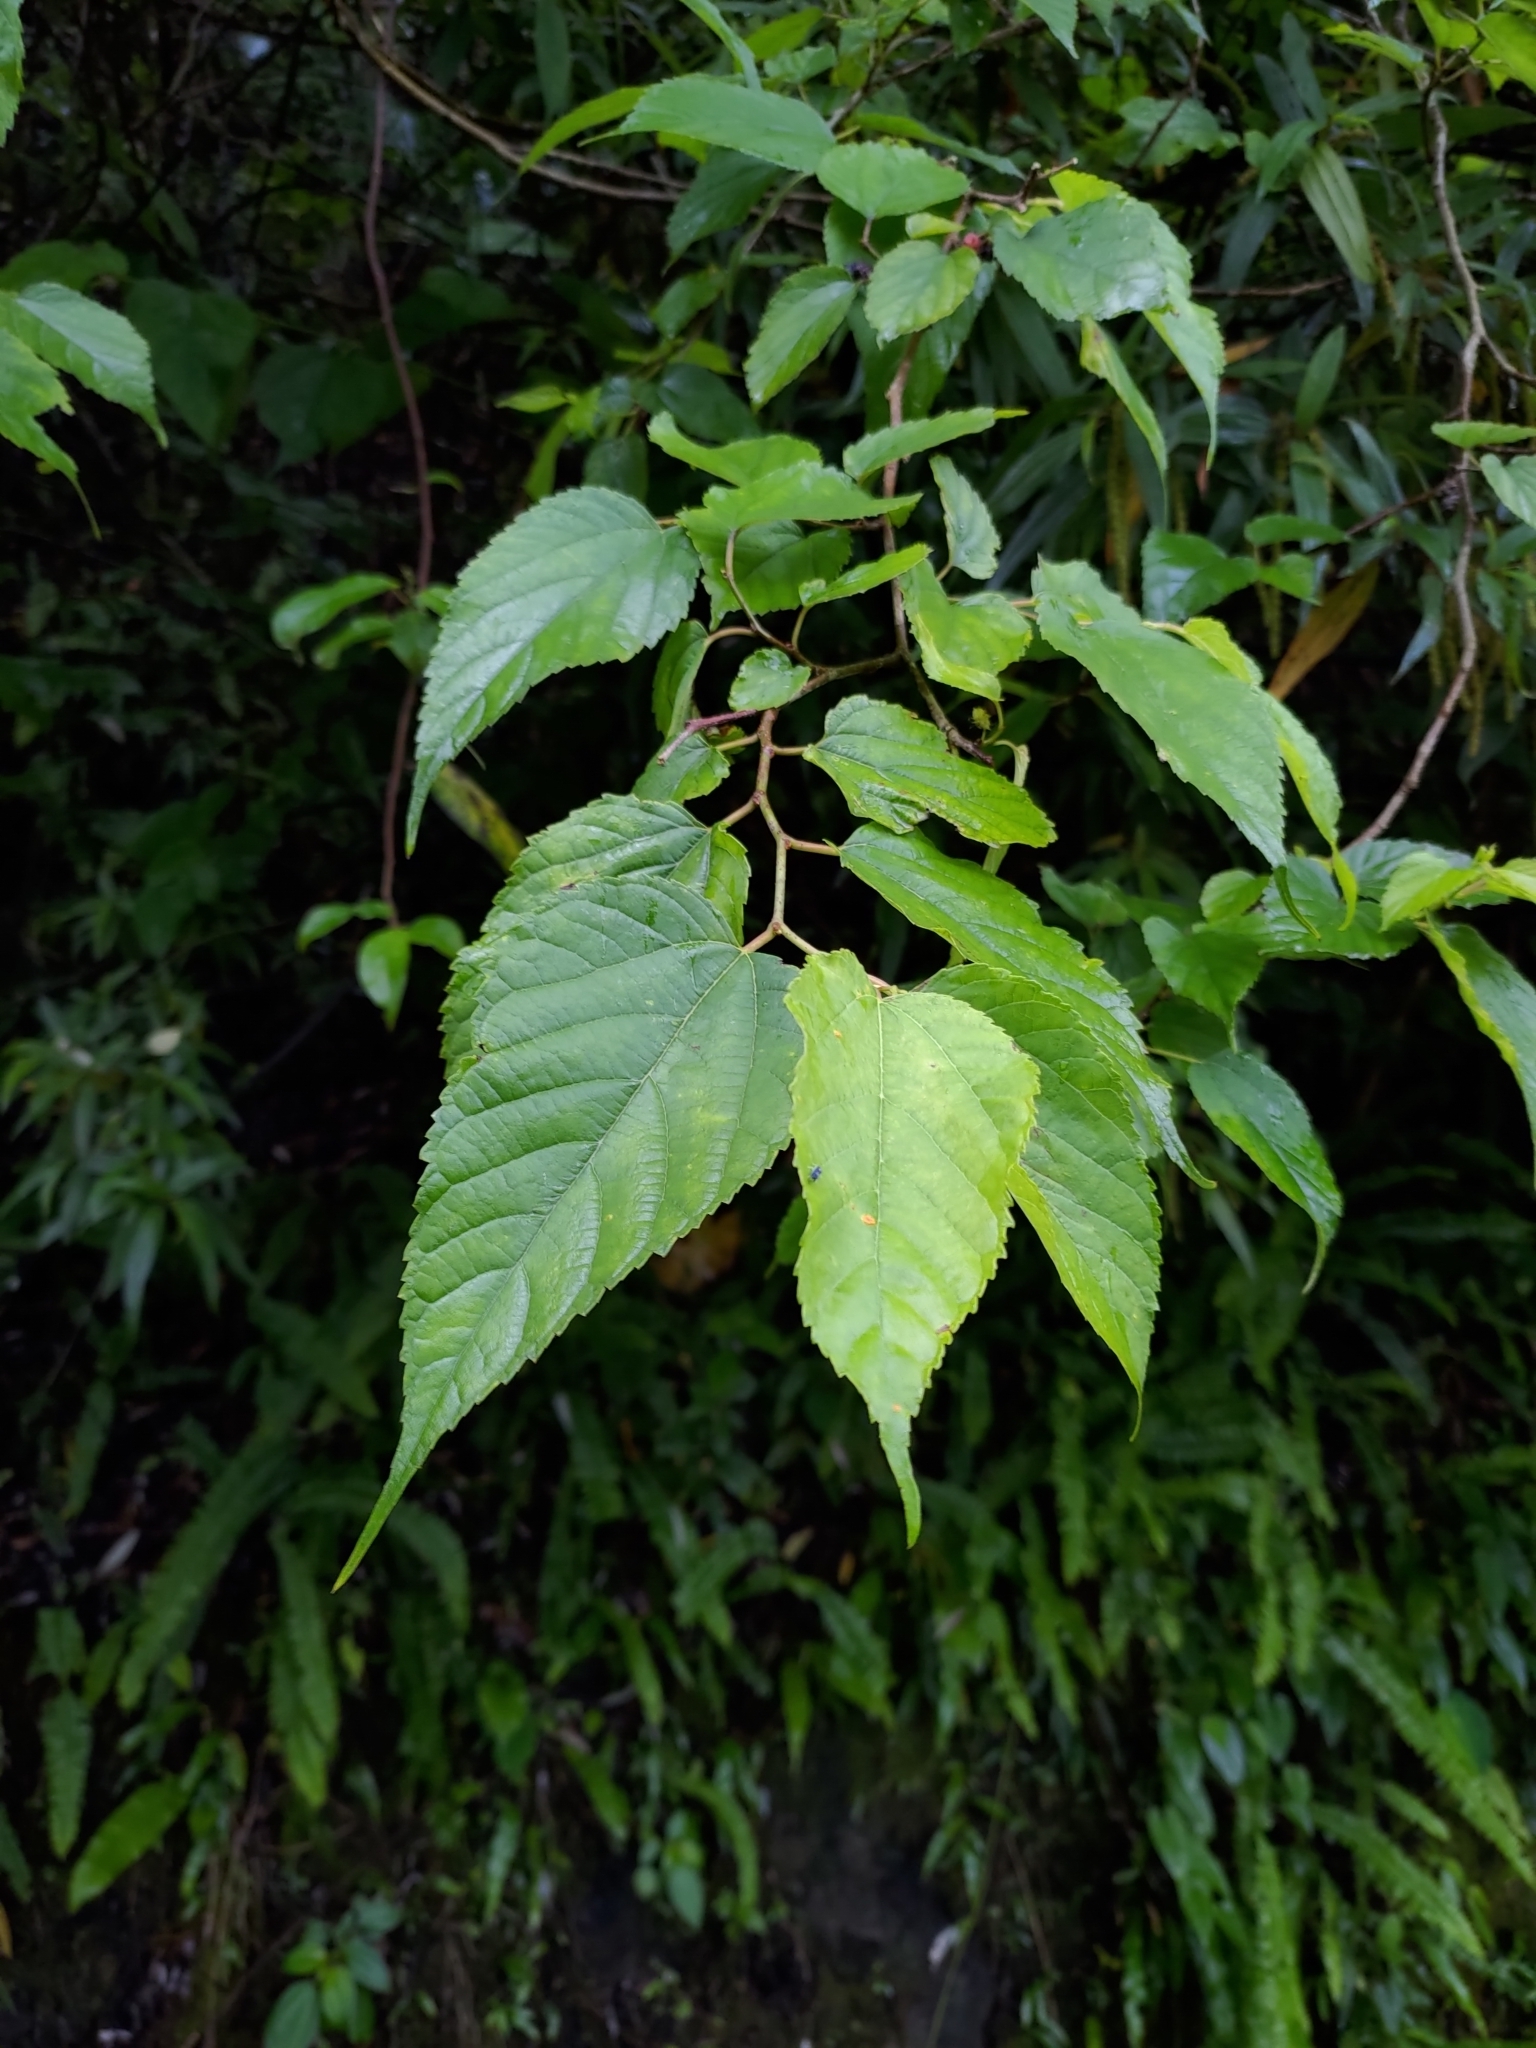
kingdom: Plantae
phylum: Tracheophyta
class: Magnoliopsida
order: Rosales
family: Moraceae
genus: Morus
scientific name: Morus indica
